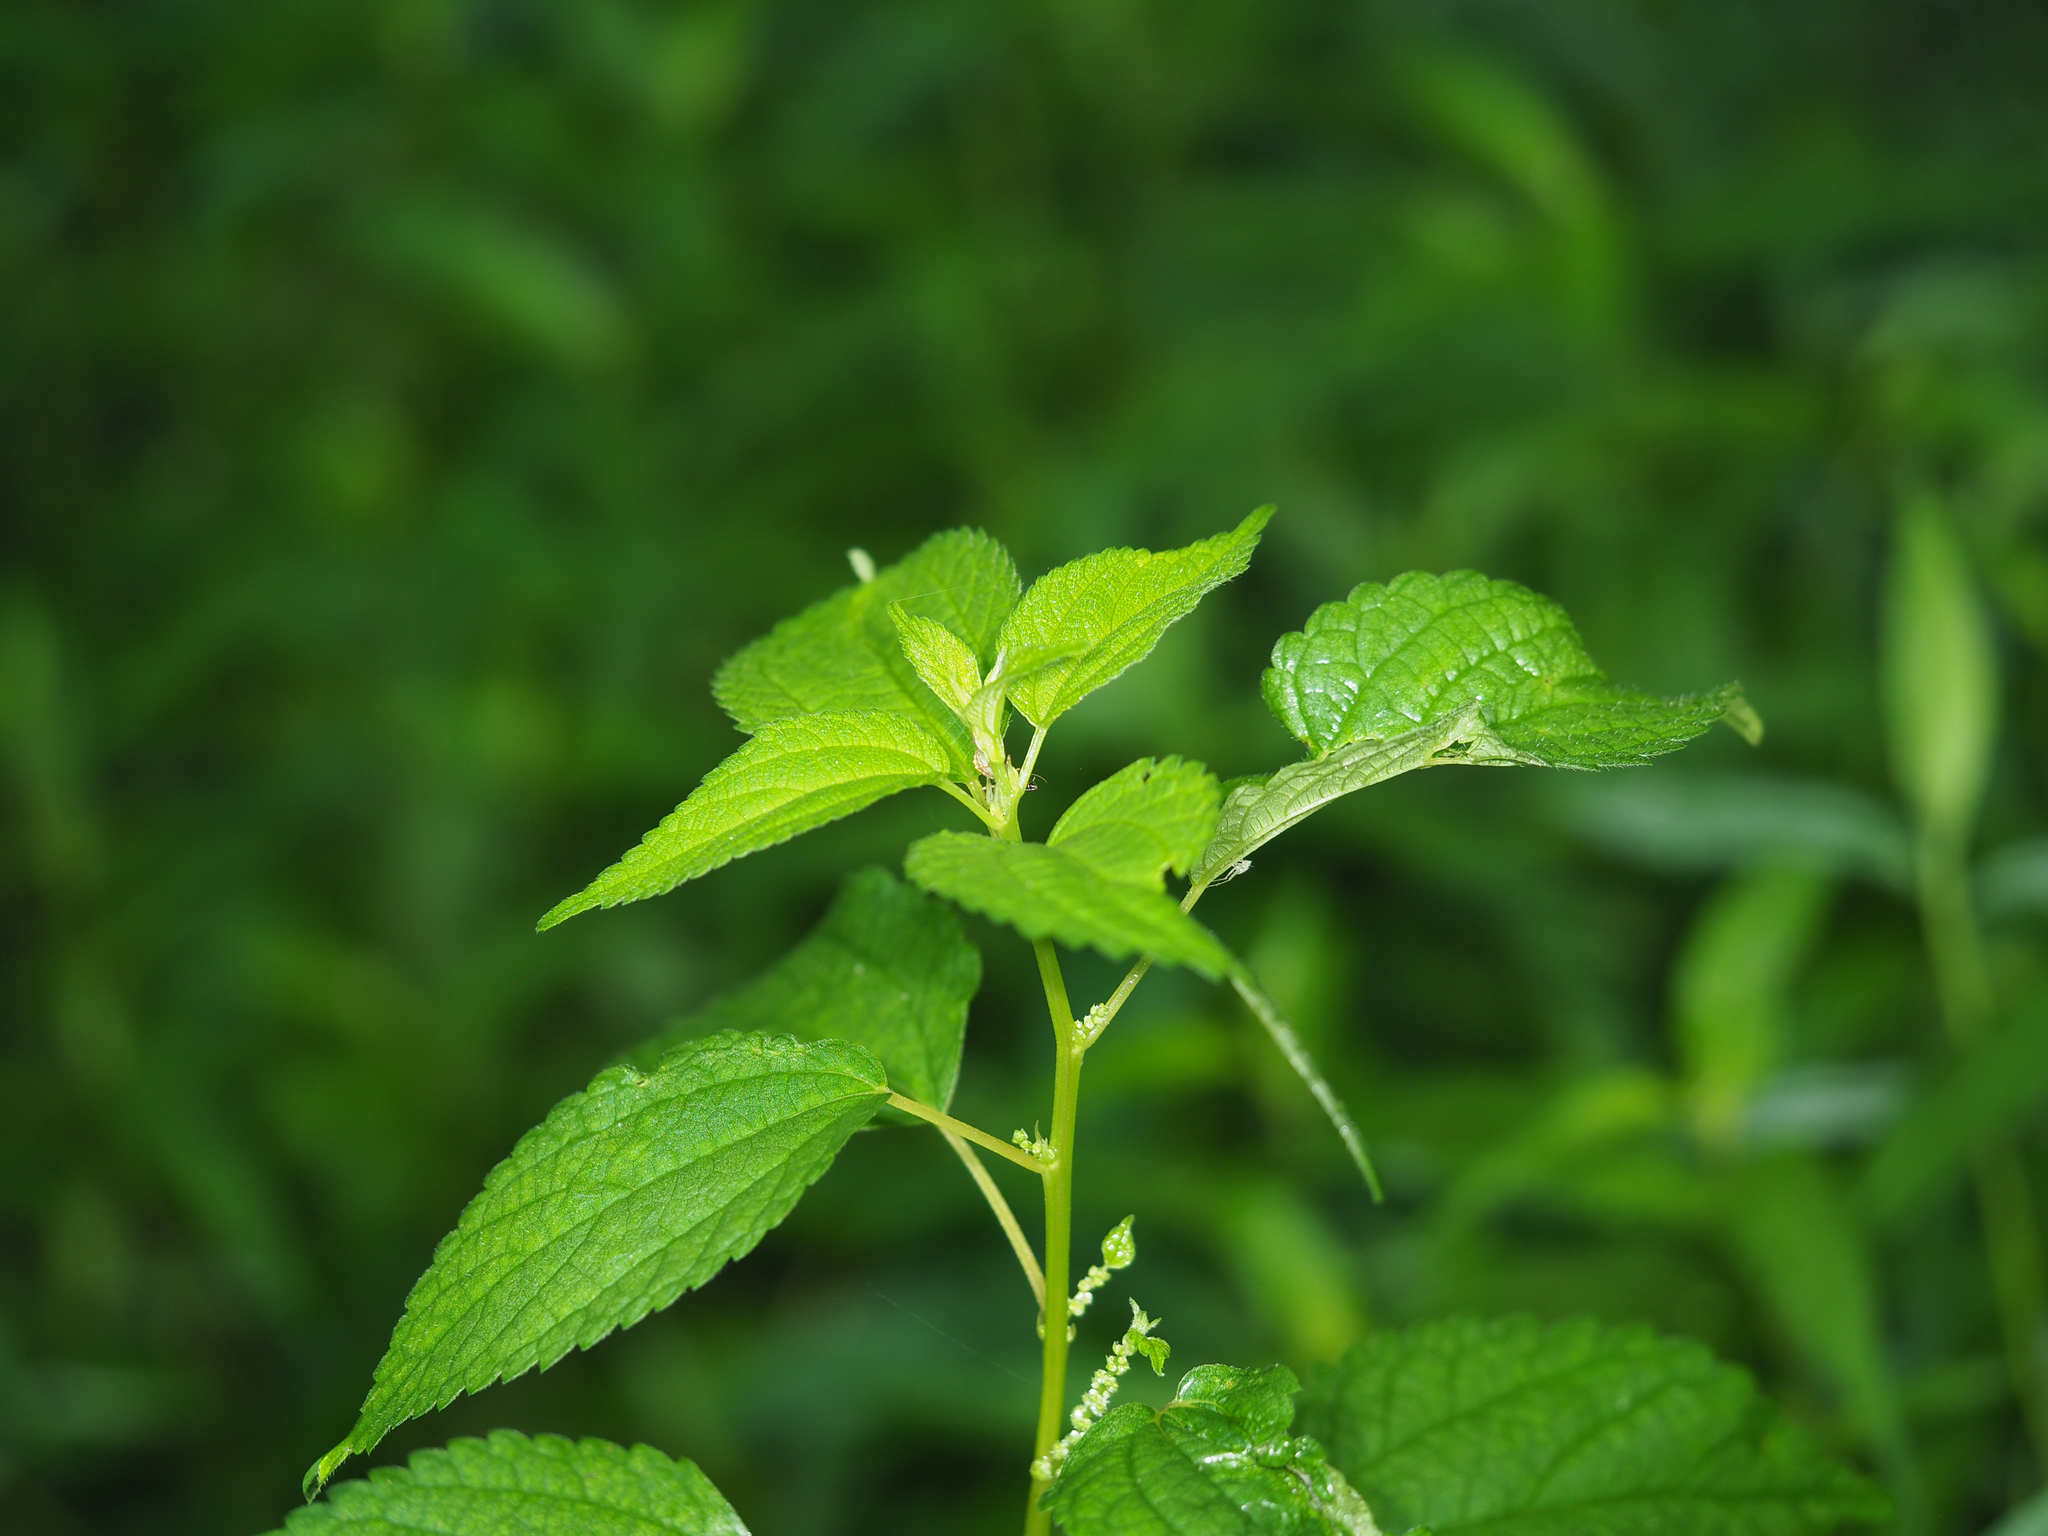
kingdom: Plantae
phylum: Tracheophyta
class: Magnoliopsida
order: Rosales
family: Urticaceae
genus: Boehmeria
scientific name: Boehmeria cylindrica
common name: Bog-hemp
